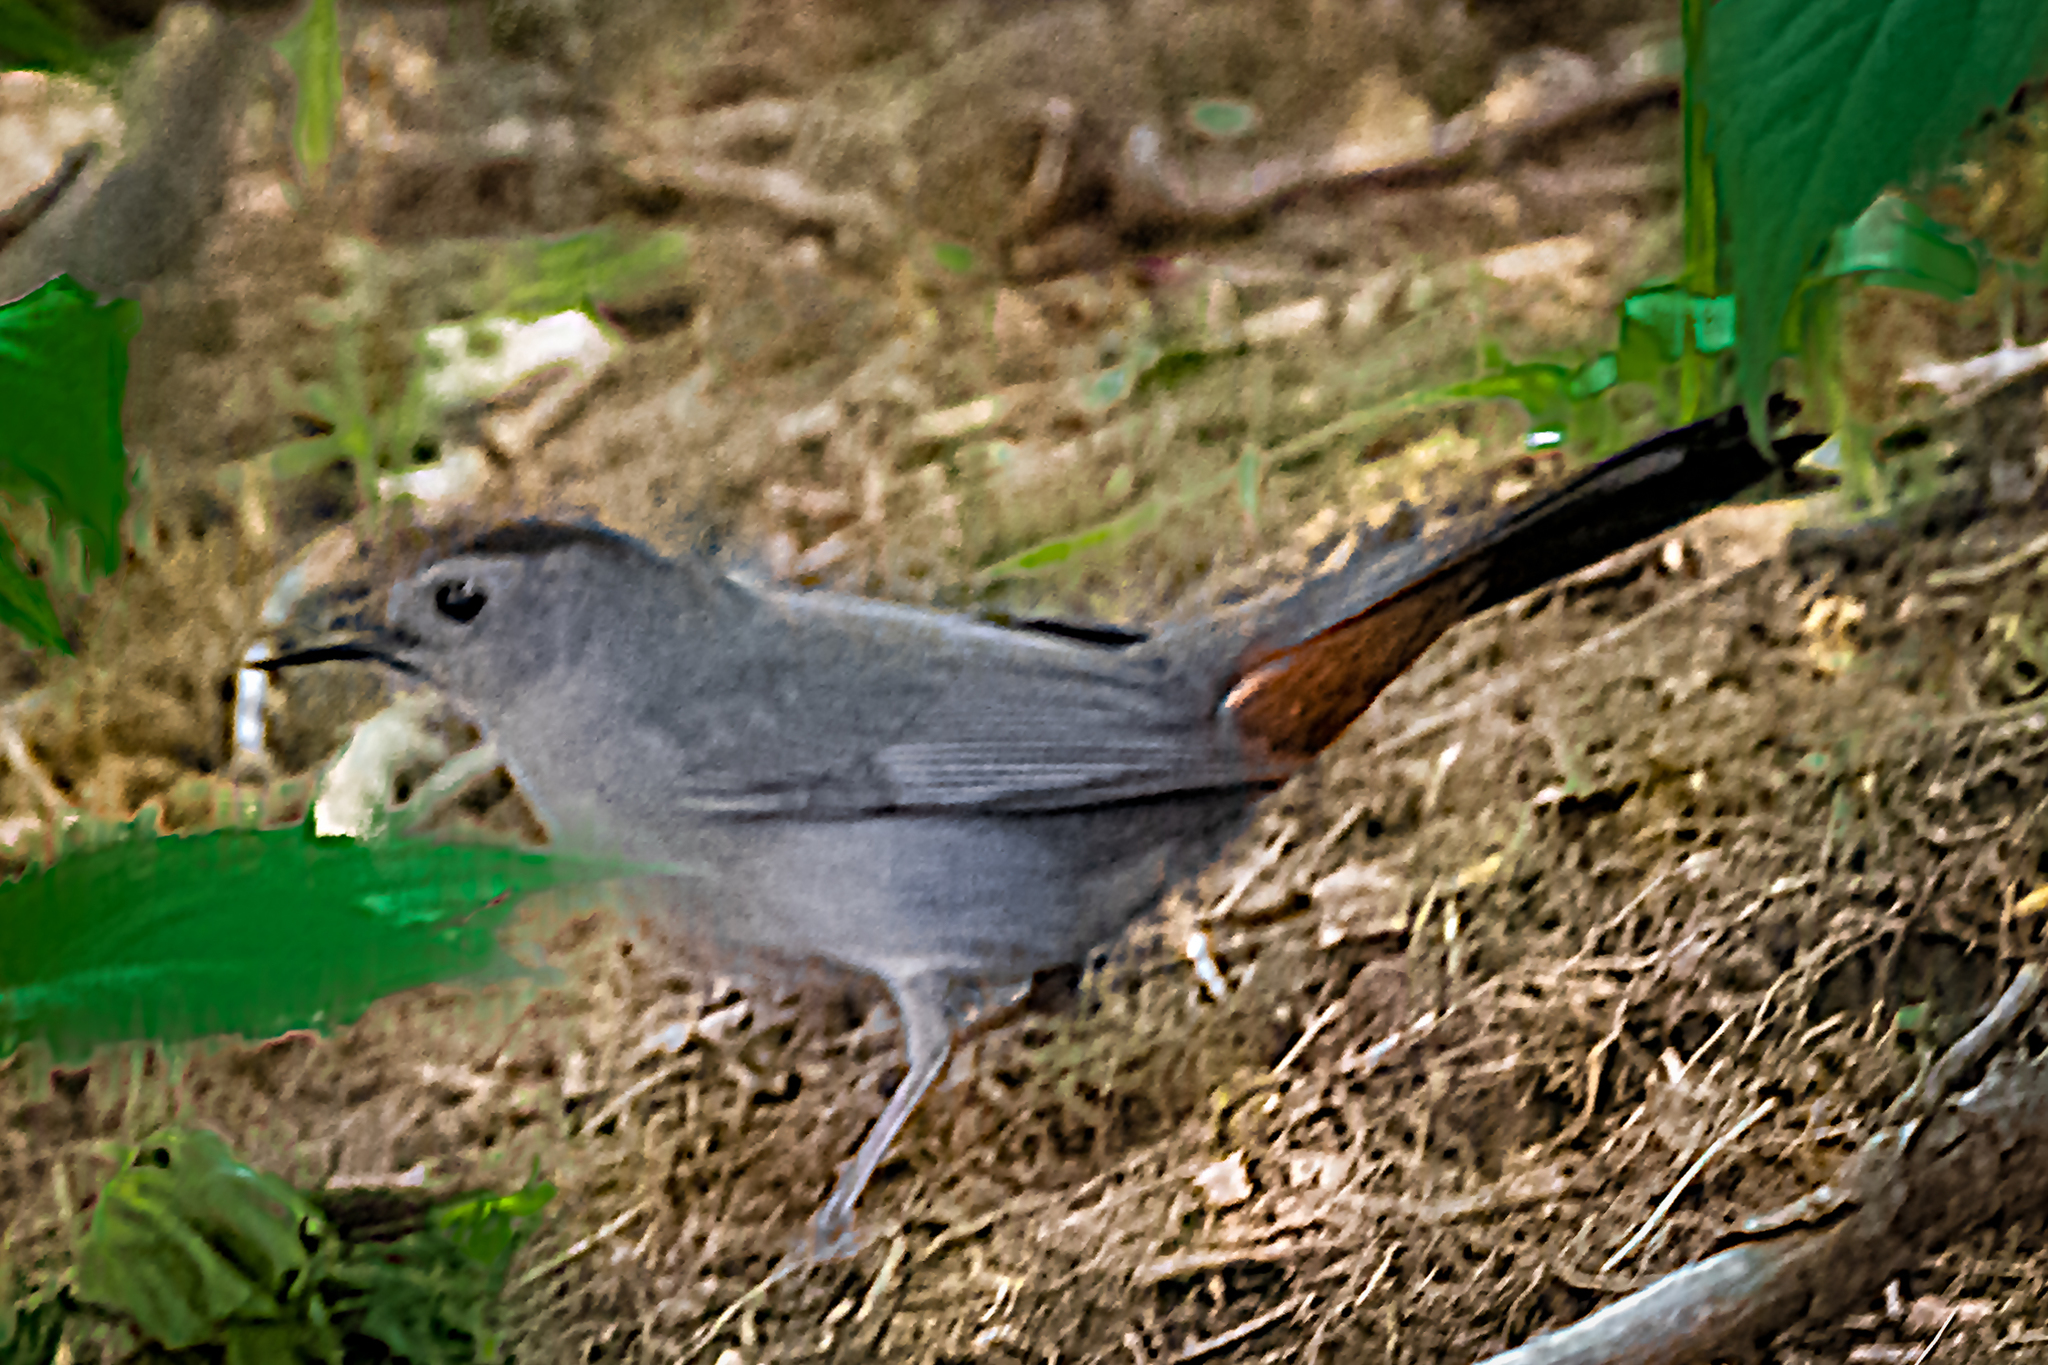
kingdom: Animalia
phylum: Chordata
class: Aves
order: Passeriformes
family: Mimidae
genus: Dumetella
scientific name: Dumetella carolinensis
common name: Gray catbird
